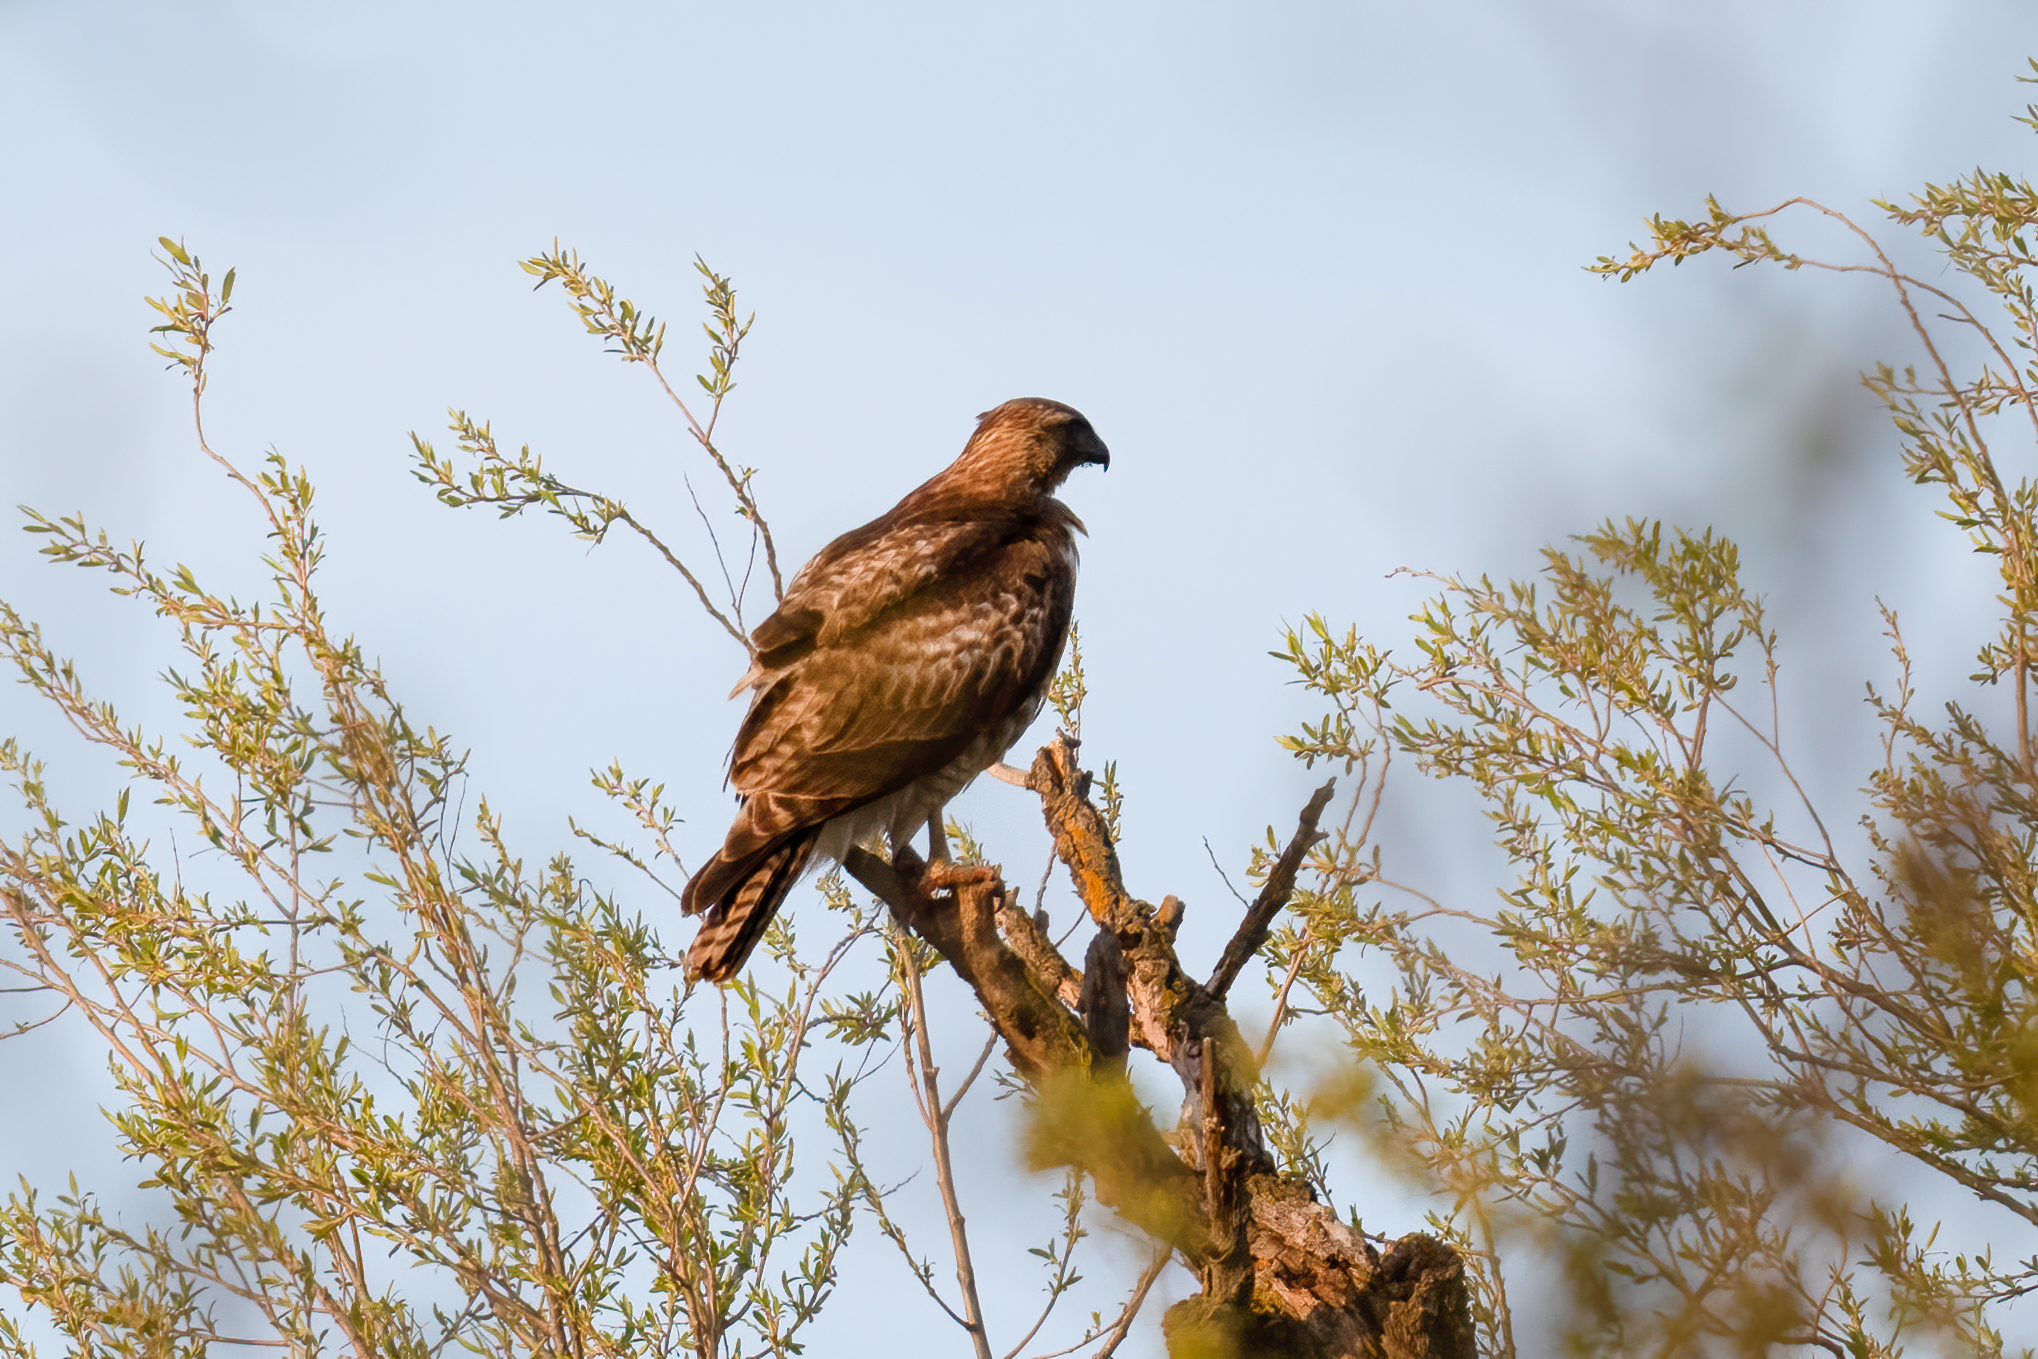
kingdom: Animalia
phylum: Chordata
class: Aves
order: Accipitriformes
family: Accipitridae
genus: Buteo
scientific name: Buteo jamaicensis
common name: Red-tailed hawk
